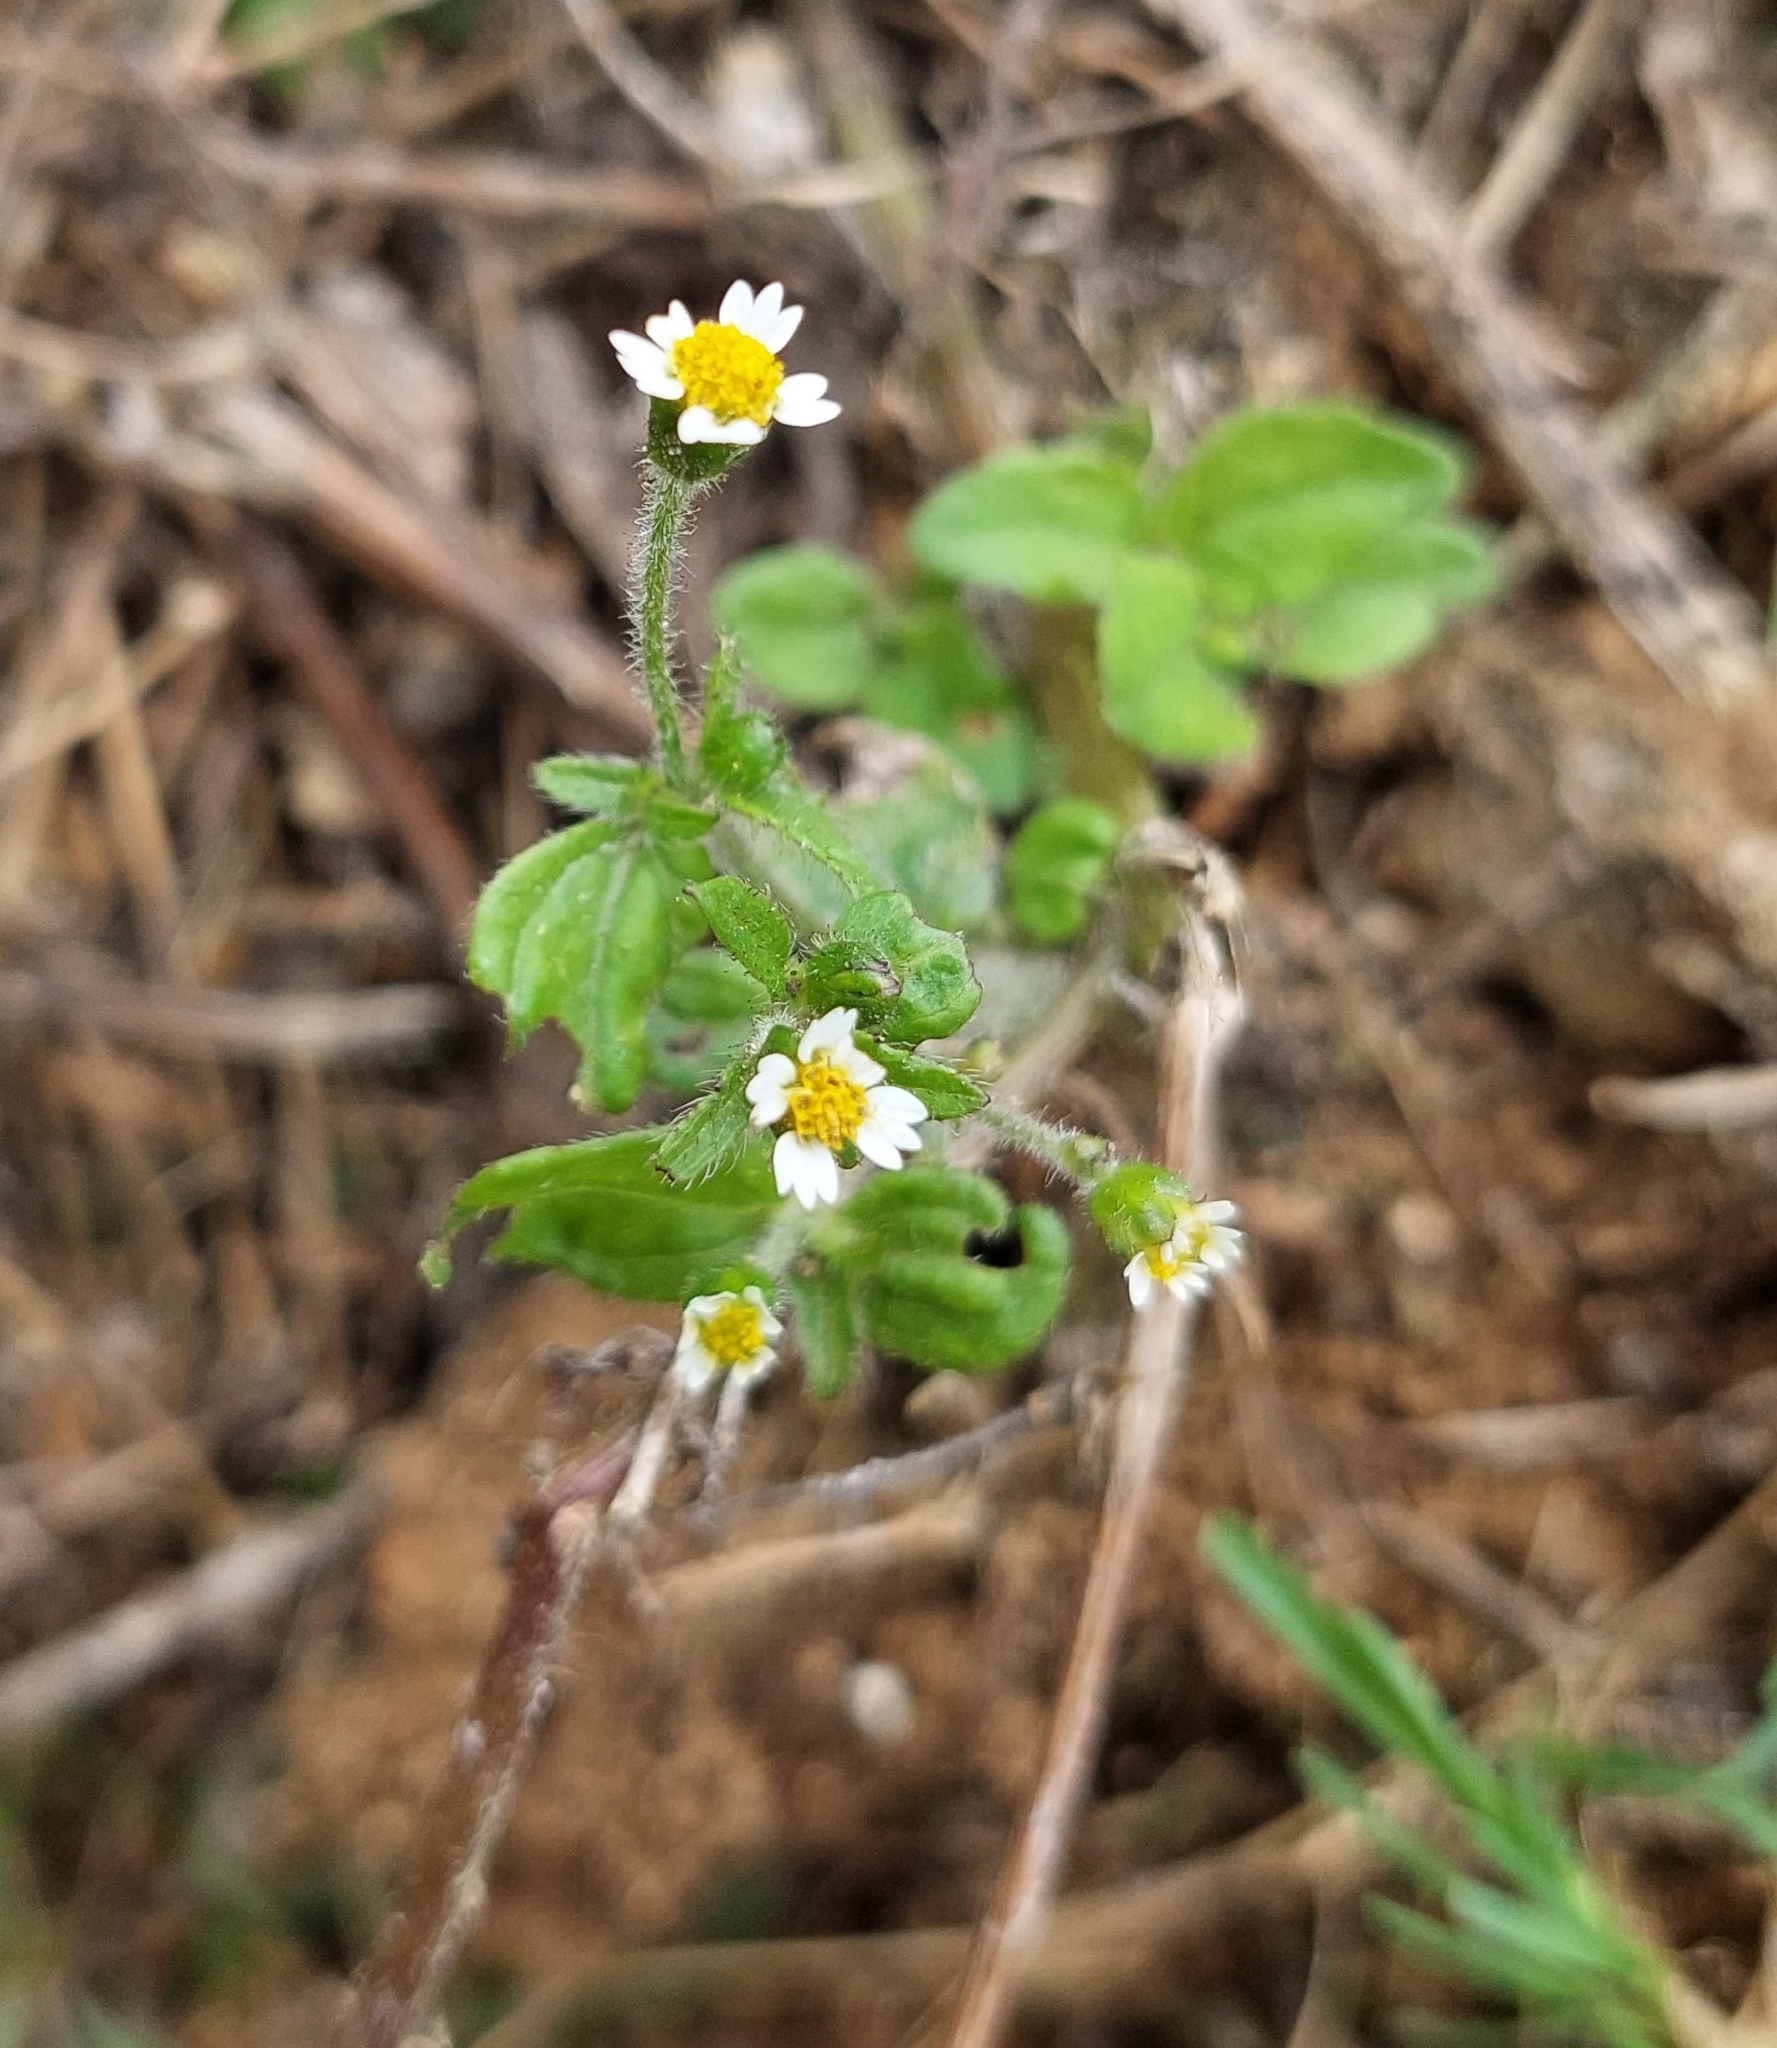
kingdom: Plantae
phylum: Tracheophyta
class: Magnoliopsida
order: Asterales
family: Asteraceae
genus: Galinsoga
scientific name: Galinsoga quadriradiata
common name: Shaggy soldier
